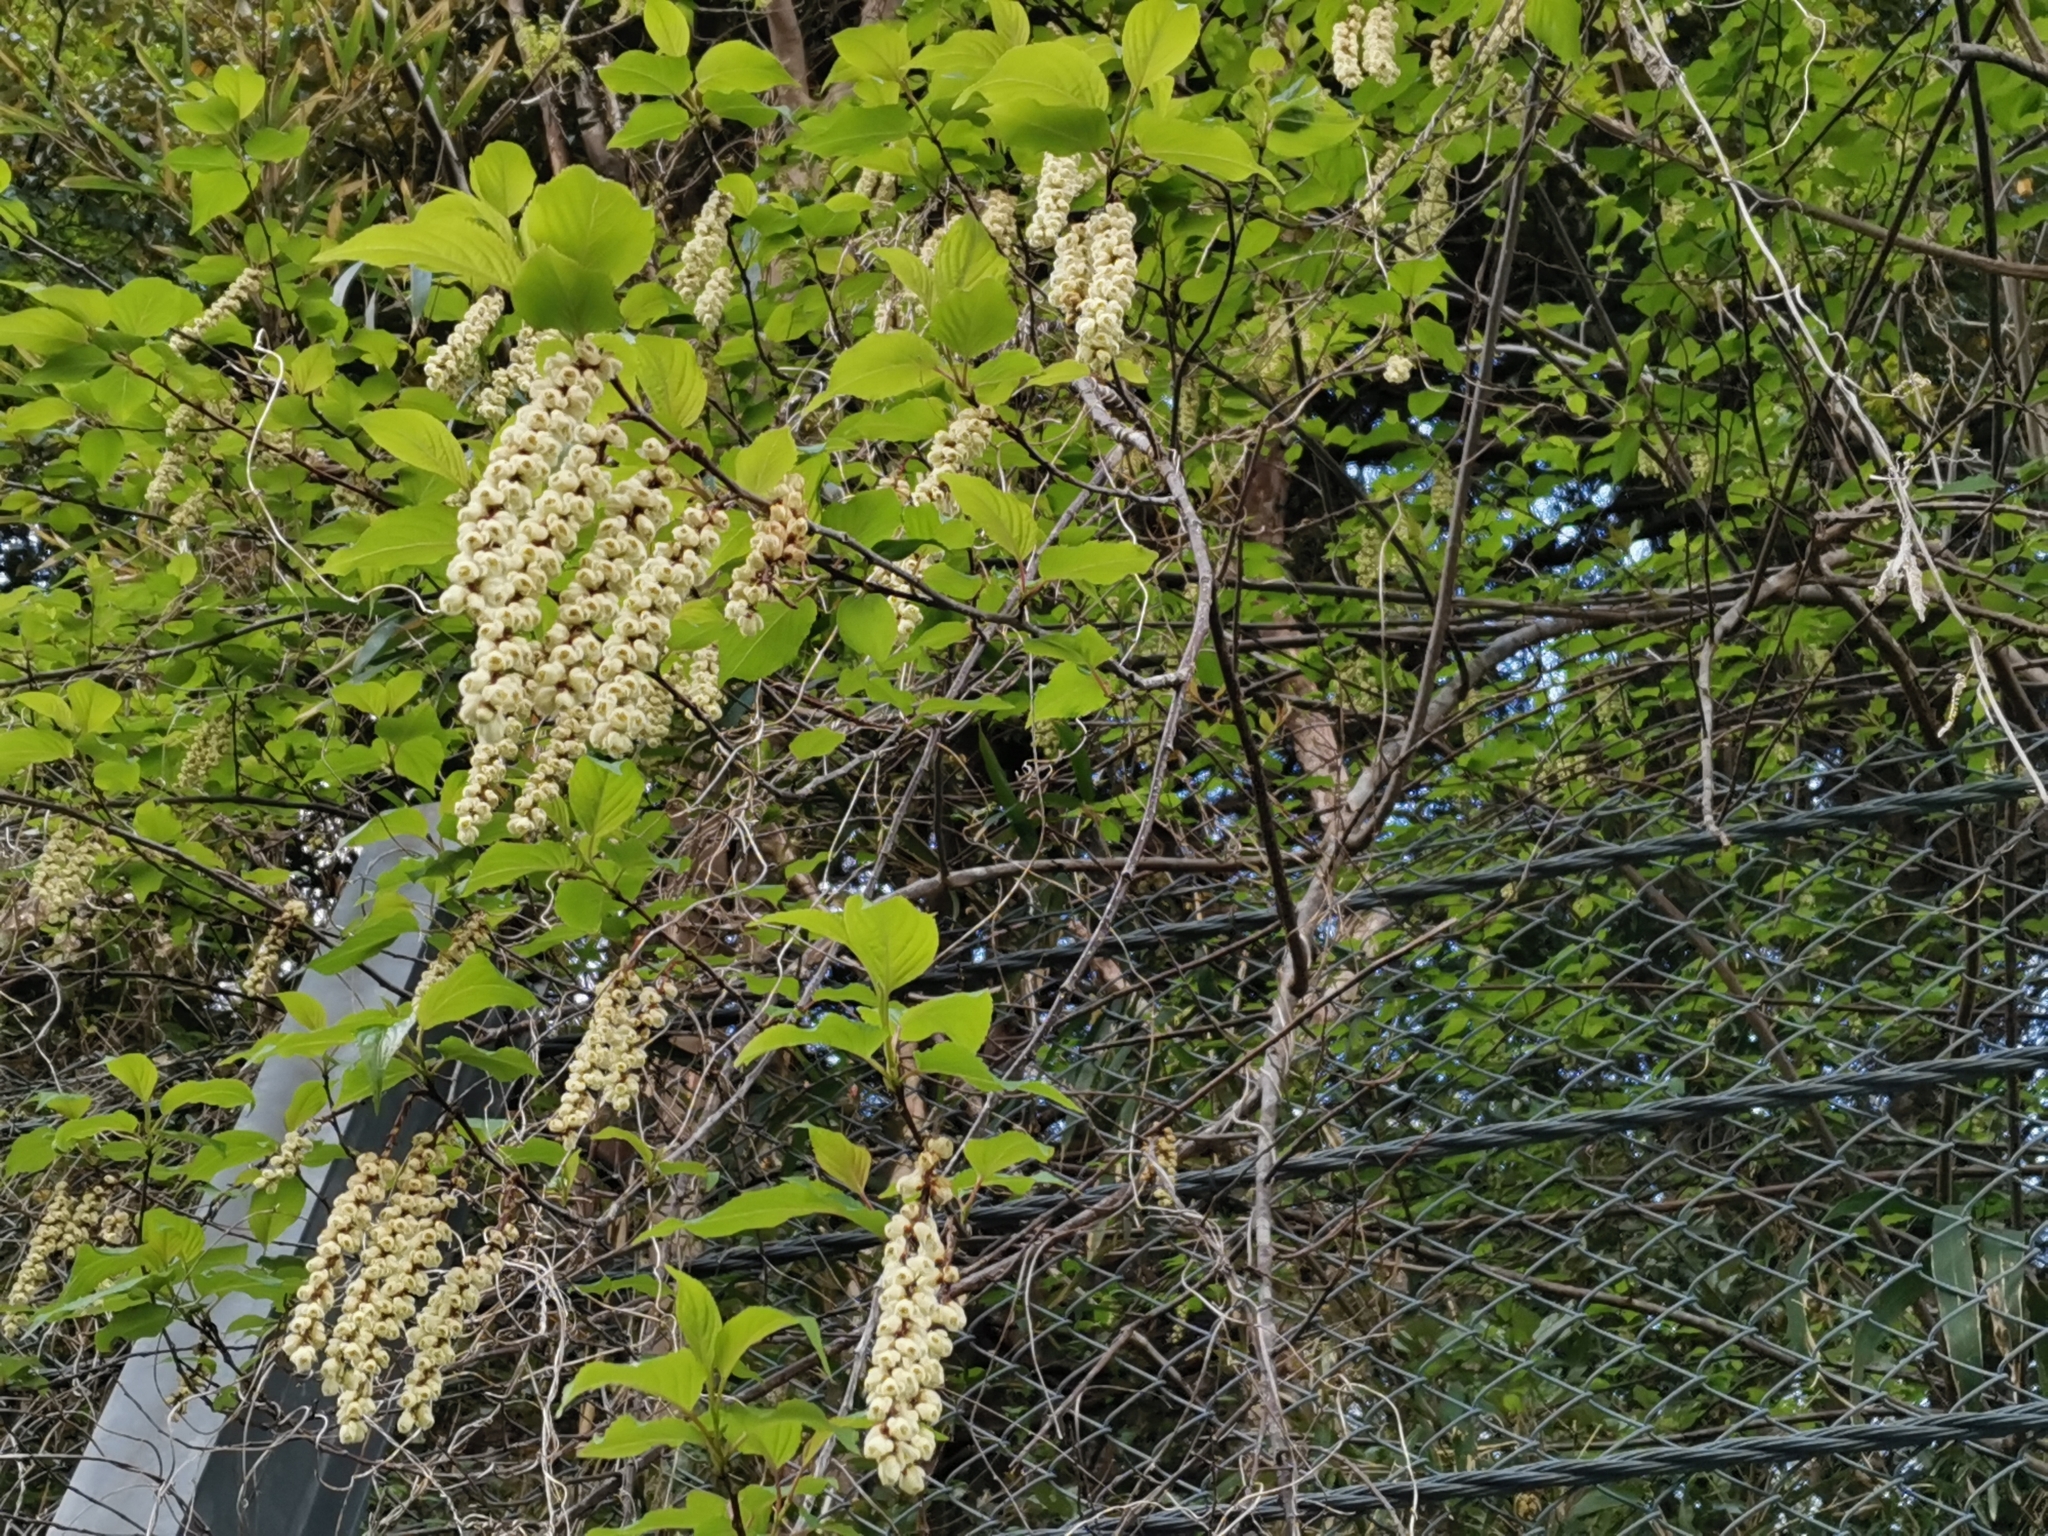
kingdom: Plantae
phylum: Tracheophyta
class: Magnoliopsida
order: Crossosomatales
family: Stachyuraceae
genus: Stachyurus
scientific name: Stachyurus praecox
